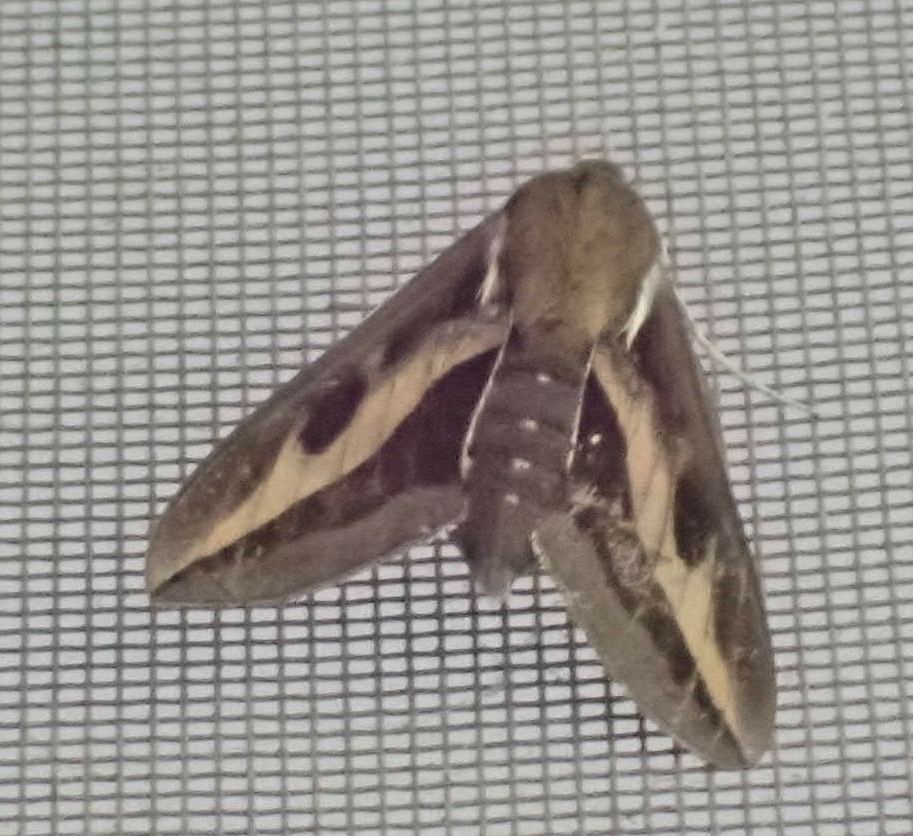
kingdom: Animalia
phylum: Arthropoda
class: Insecta
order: Lepidoptera
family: Sphingidae
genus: Hyles
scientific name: Hyles gallii
